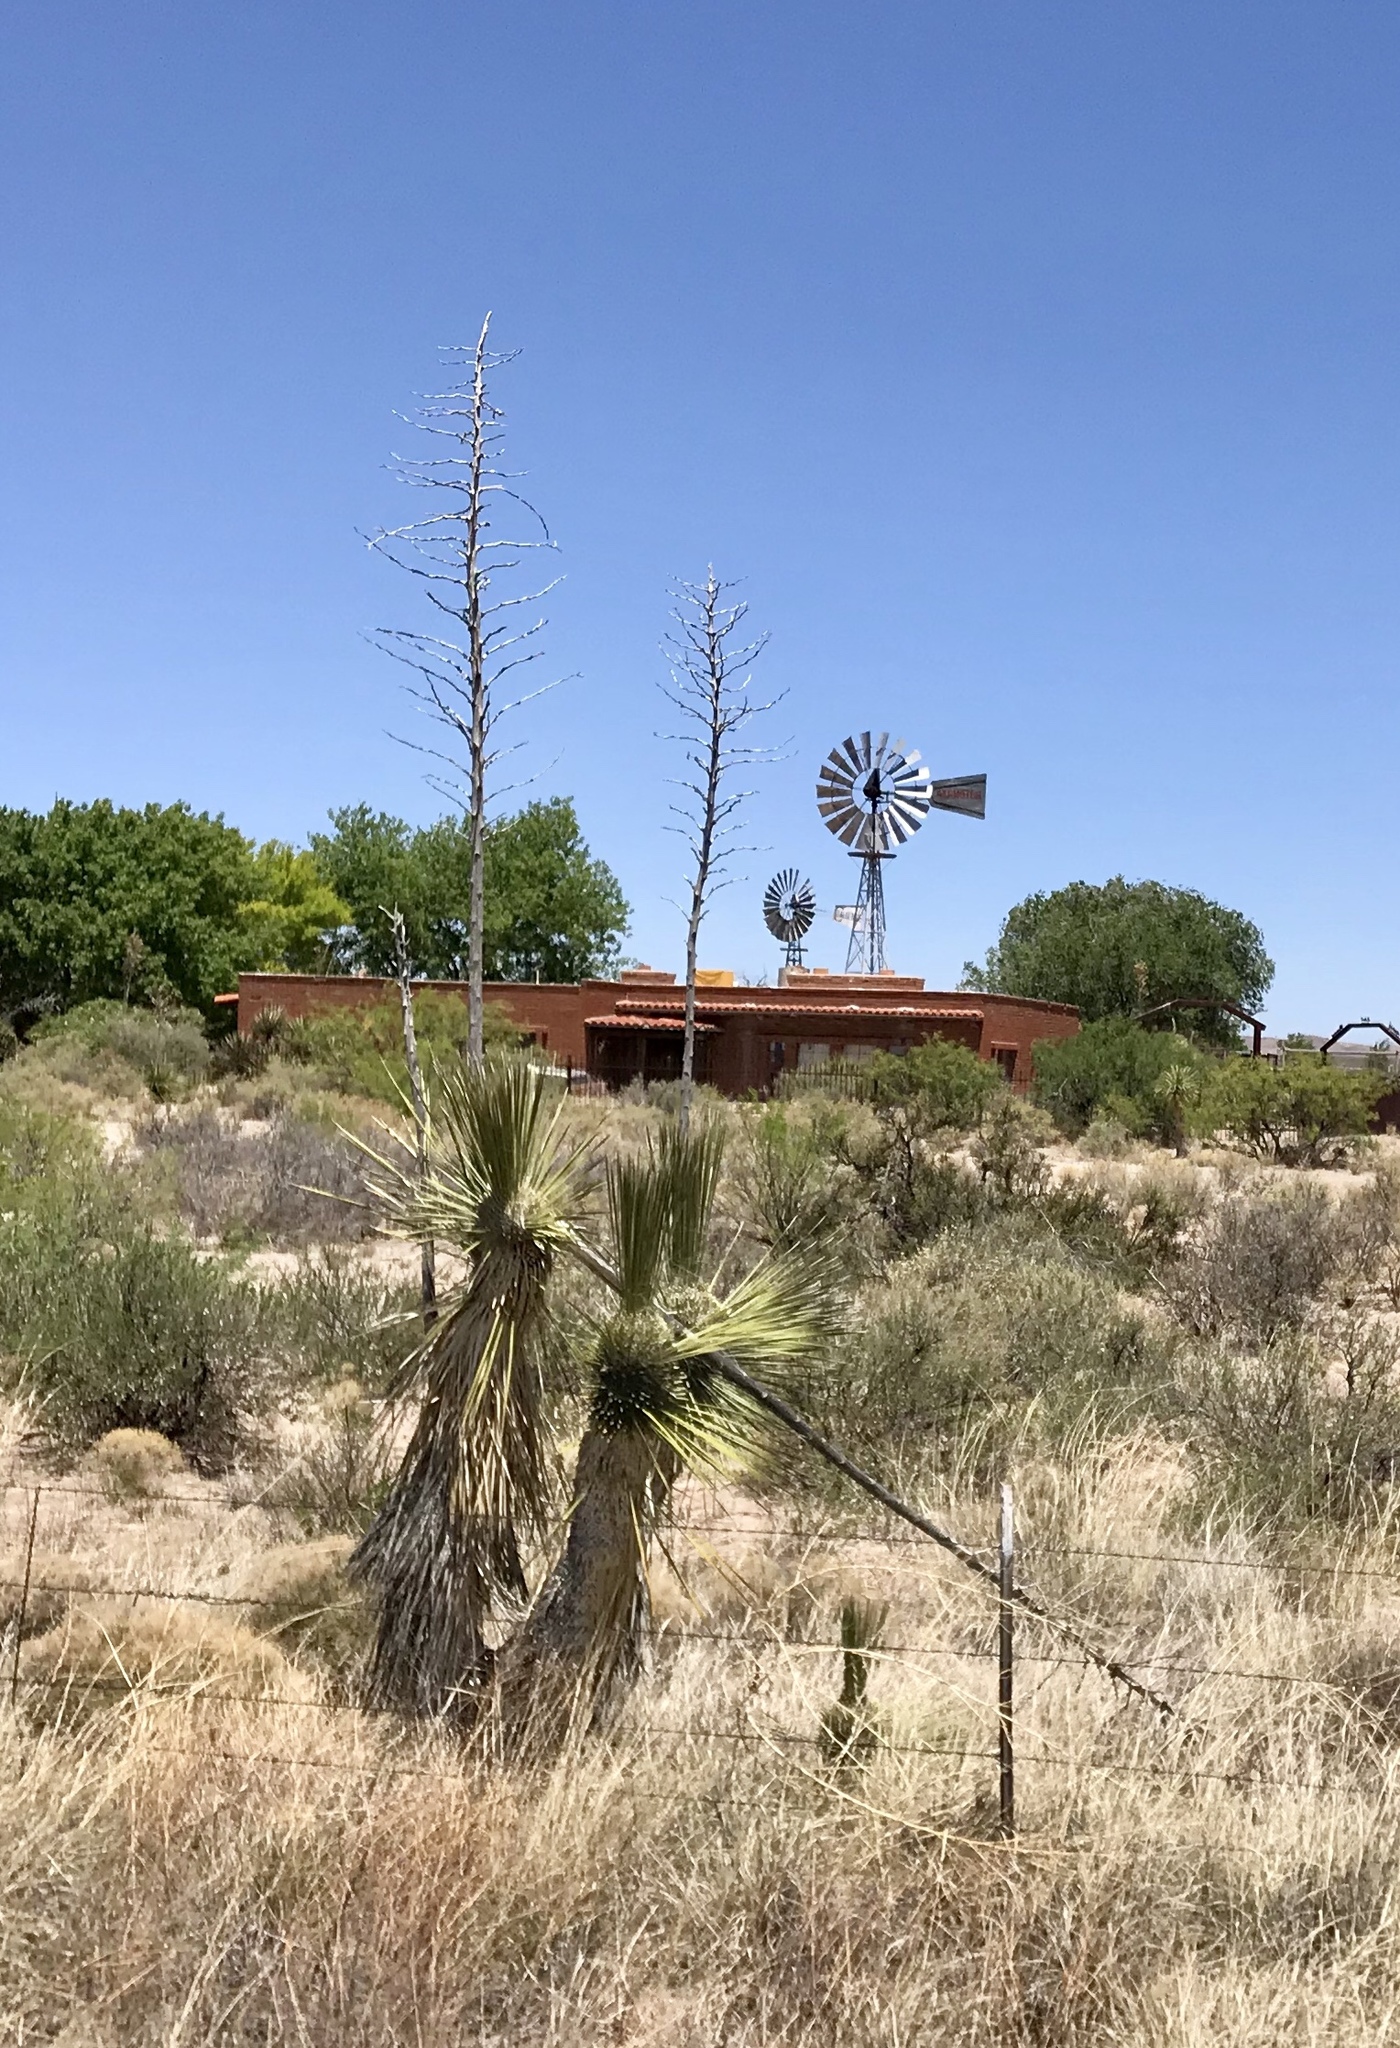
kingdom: Plantae
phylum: Tracheophyta
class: Liliopsida
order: Asparagales
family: Asparagaceae
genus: Yucca
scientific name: Yucca elata
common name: Palmella
